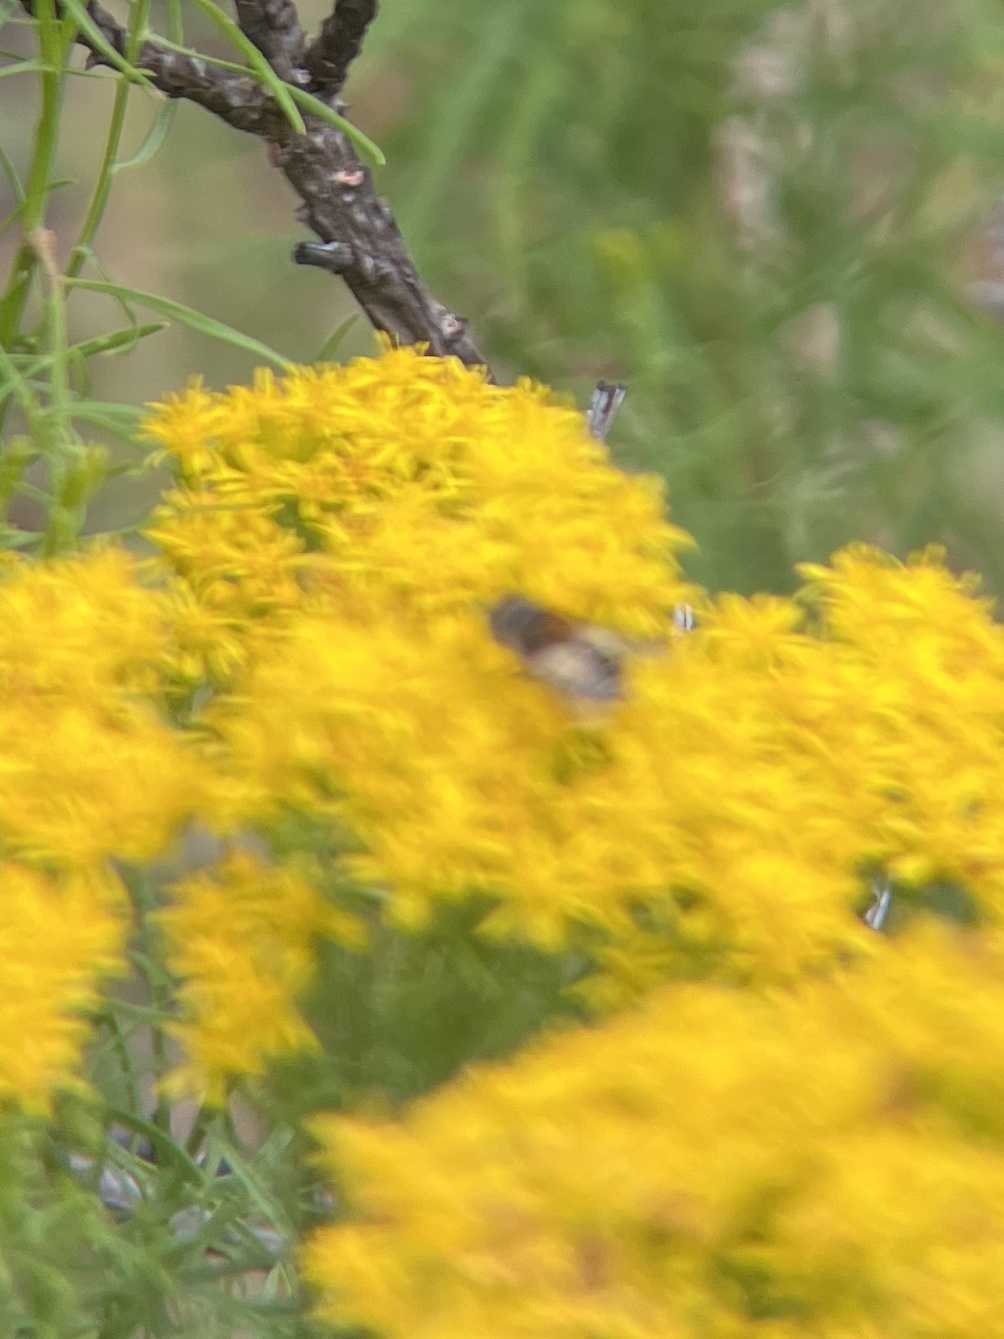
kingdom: Animalia
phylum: Arthropoda
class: Insecta
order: Diptera
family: Syrphidae
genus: Palpada
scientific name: Palpada albifrons
